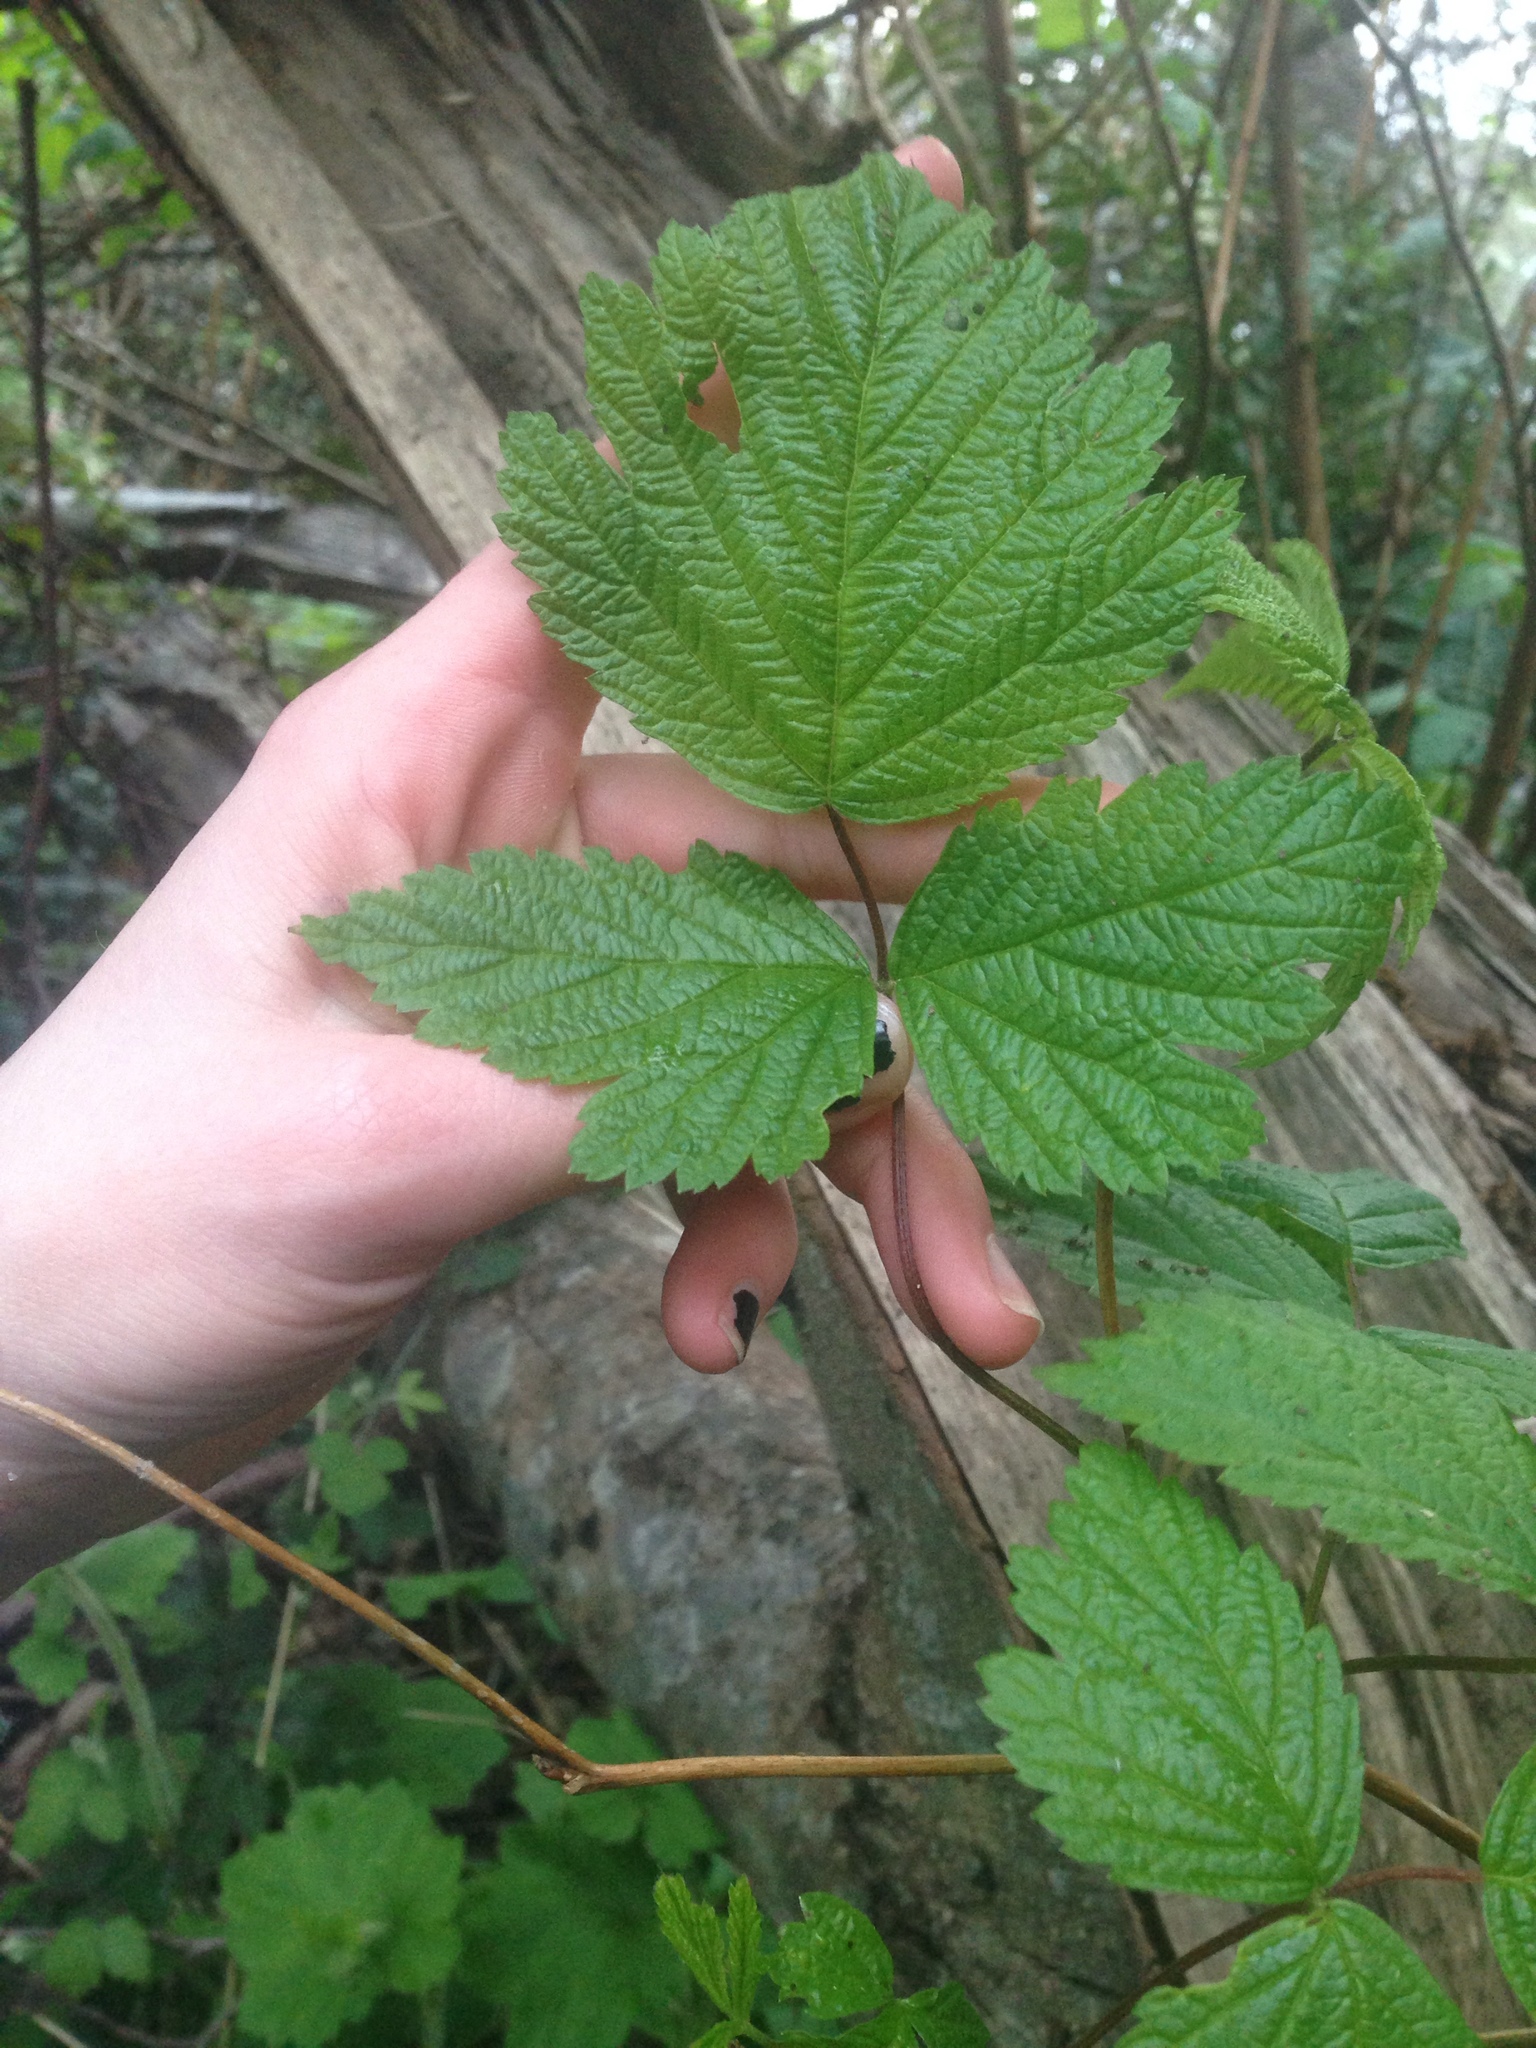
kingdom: Plantae
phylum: Tracheophyta
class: Magnoliopsida
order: Rosales
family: Rosaceae
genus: Rubus
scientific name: Rubus spectabilis
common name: Salmonberry
